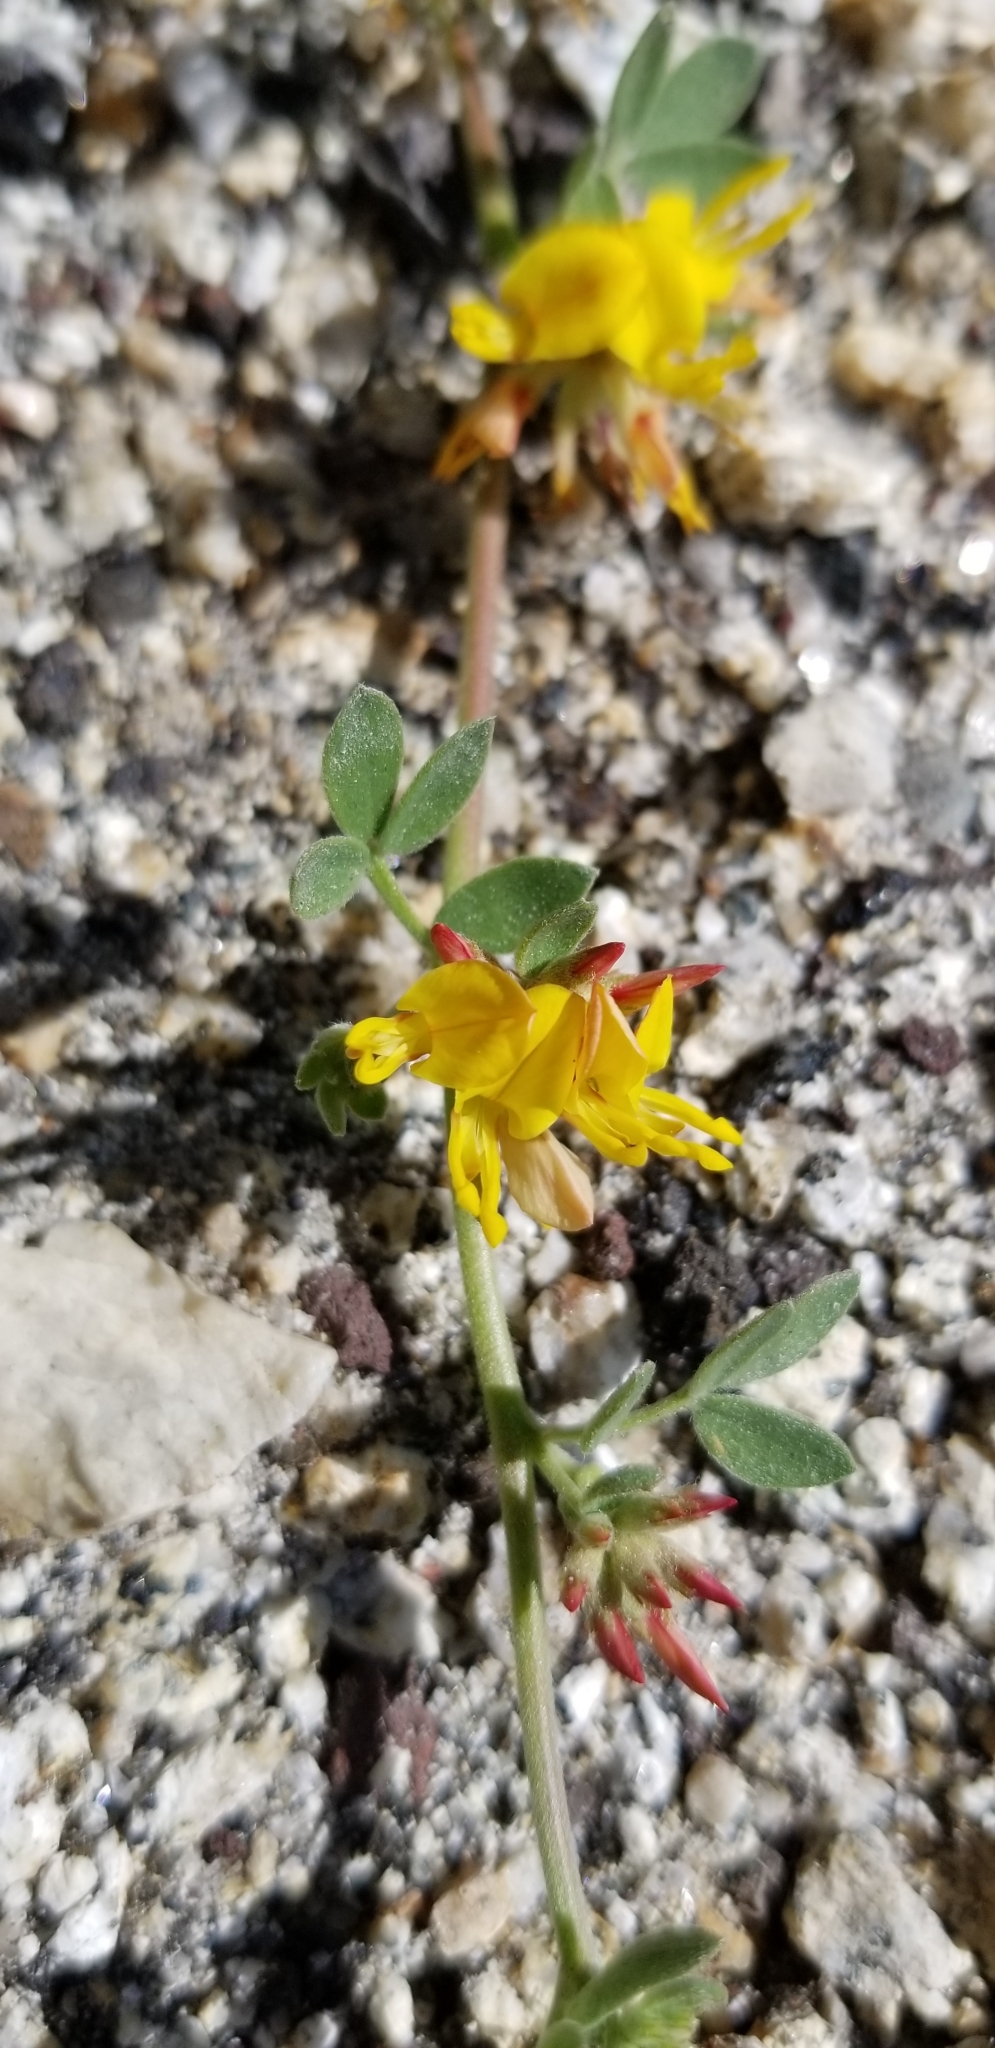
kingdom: Plantae
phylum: Tracheophyta
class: Magnoliopsida
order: Fabales
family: Fabaceae
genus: Acmispon
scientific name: Acmispon decumbens
